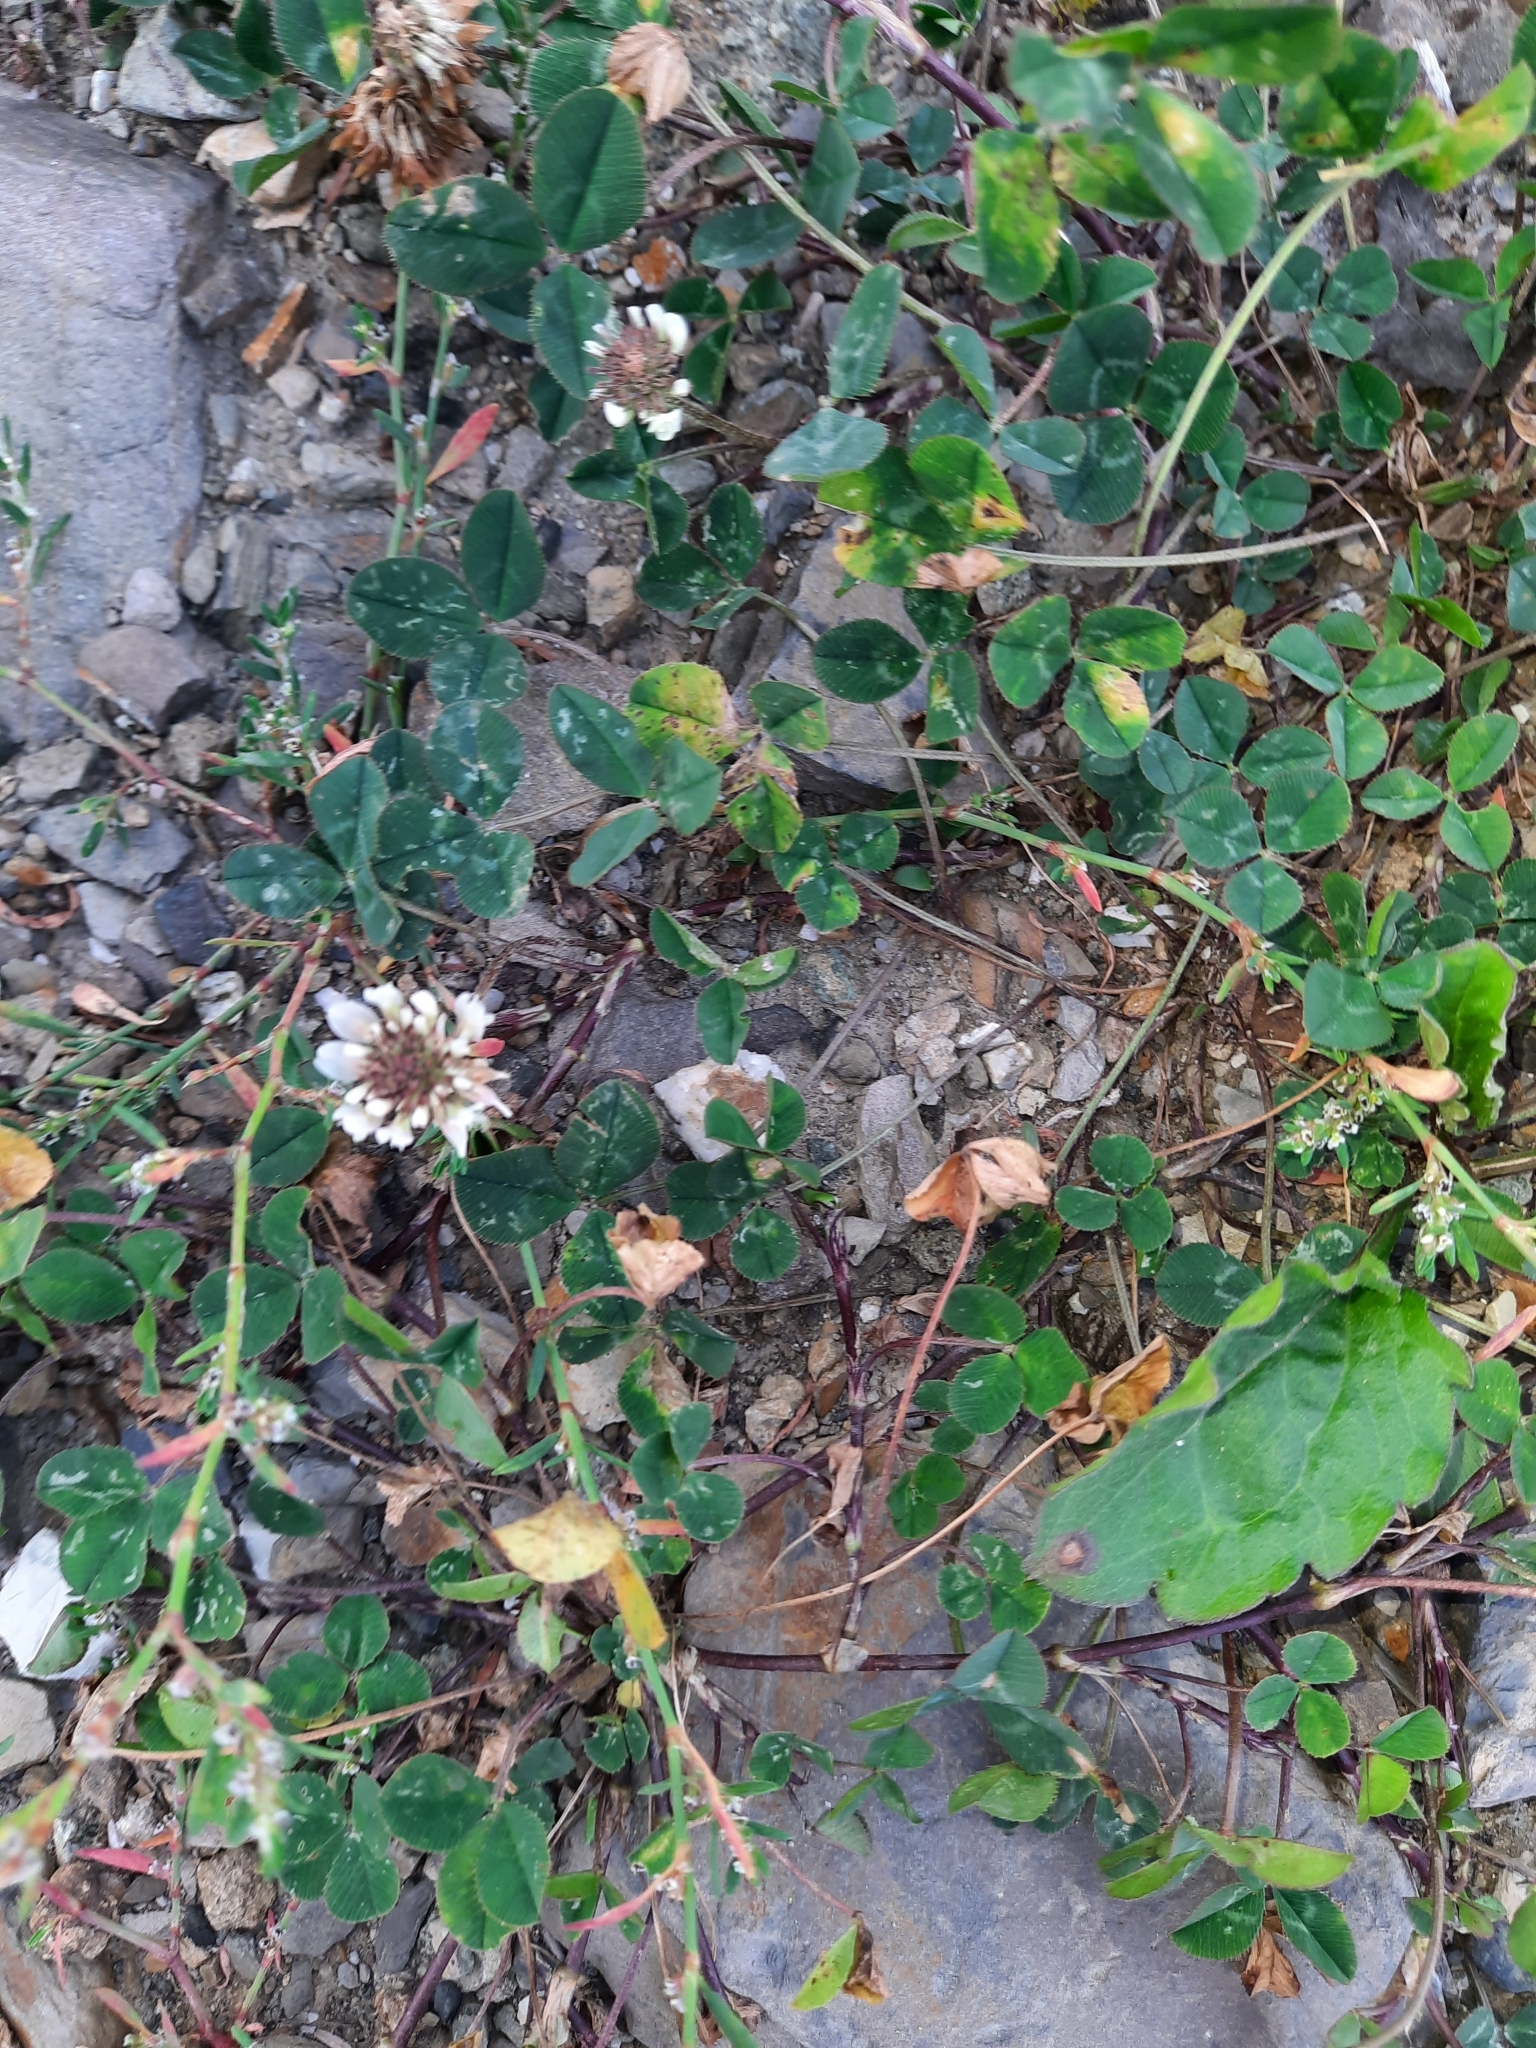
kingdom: Plantae
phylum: Tracheophyta
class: Magnoliopsida
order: Fabales
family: Fabaceae
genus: Trifolium
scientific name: Trifolium repens
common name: White clover
